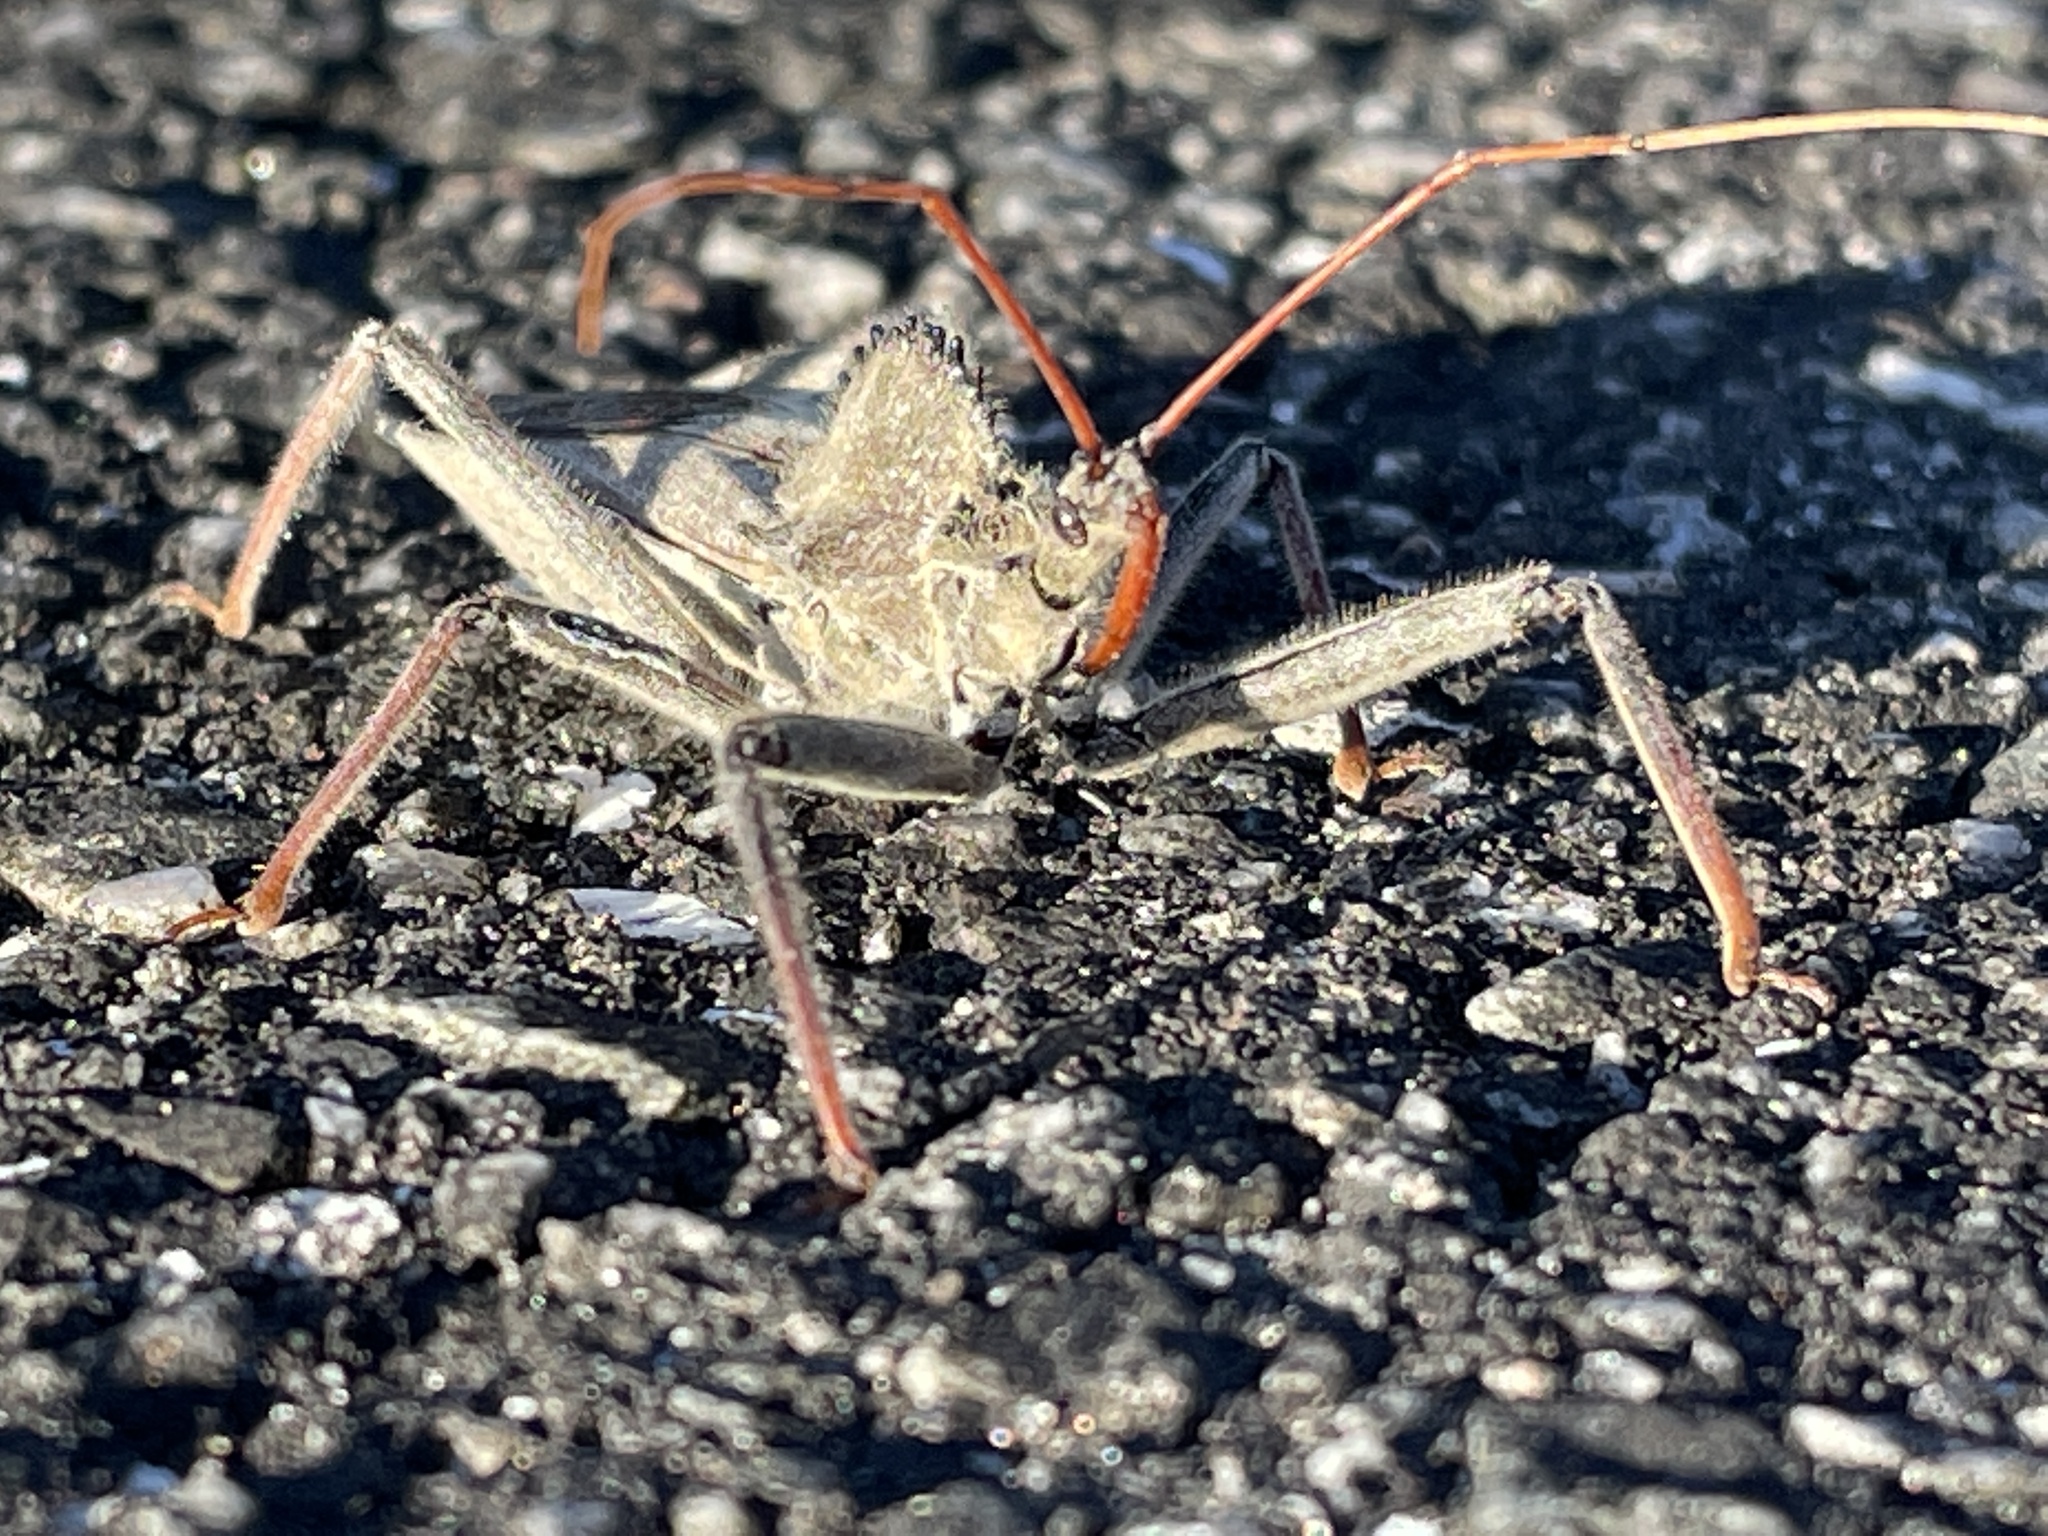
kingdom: Animalia
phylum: Arthropoda
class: Insecta
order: Hemiptera
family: Reduviidae
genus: Arilus
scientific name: Arilus cristatus
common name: North american wheel bug
